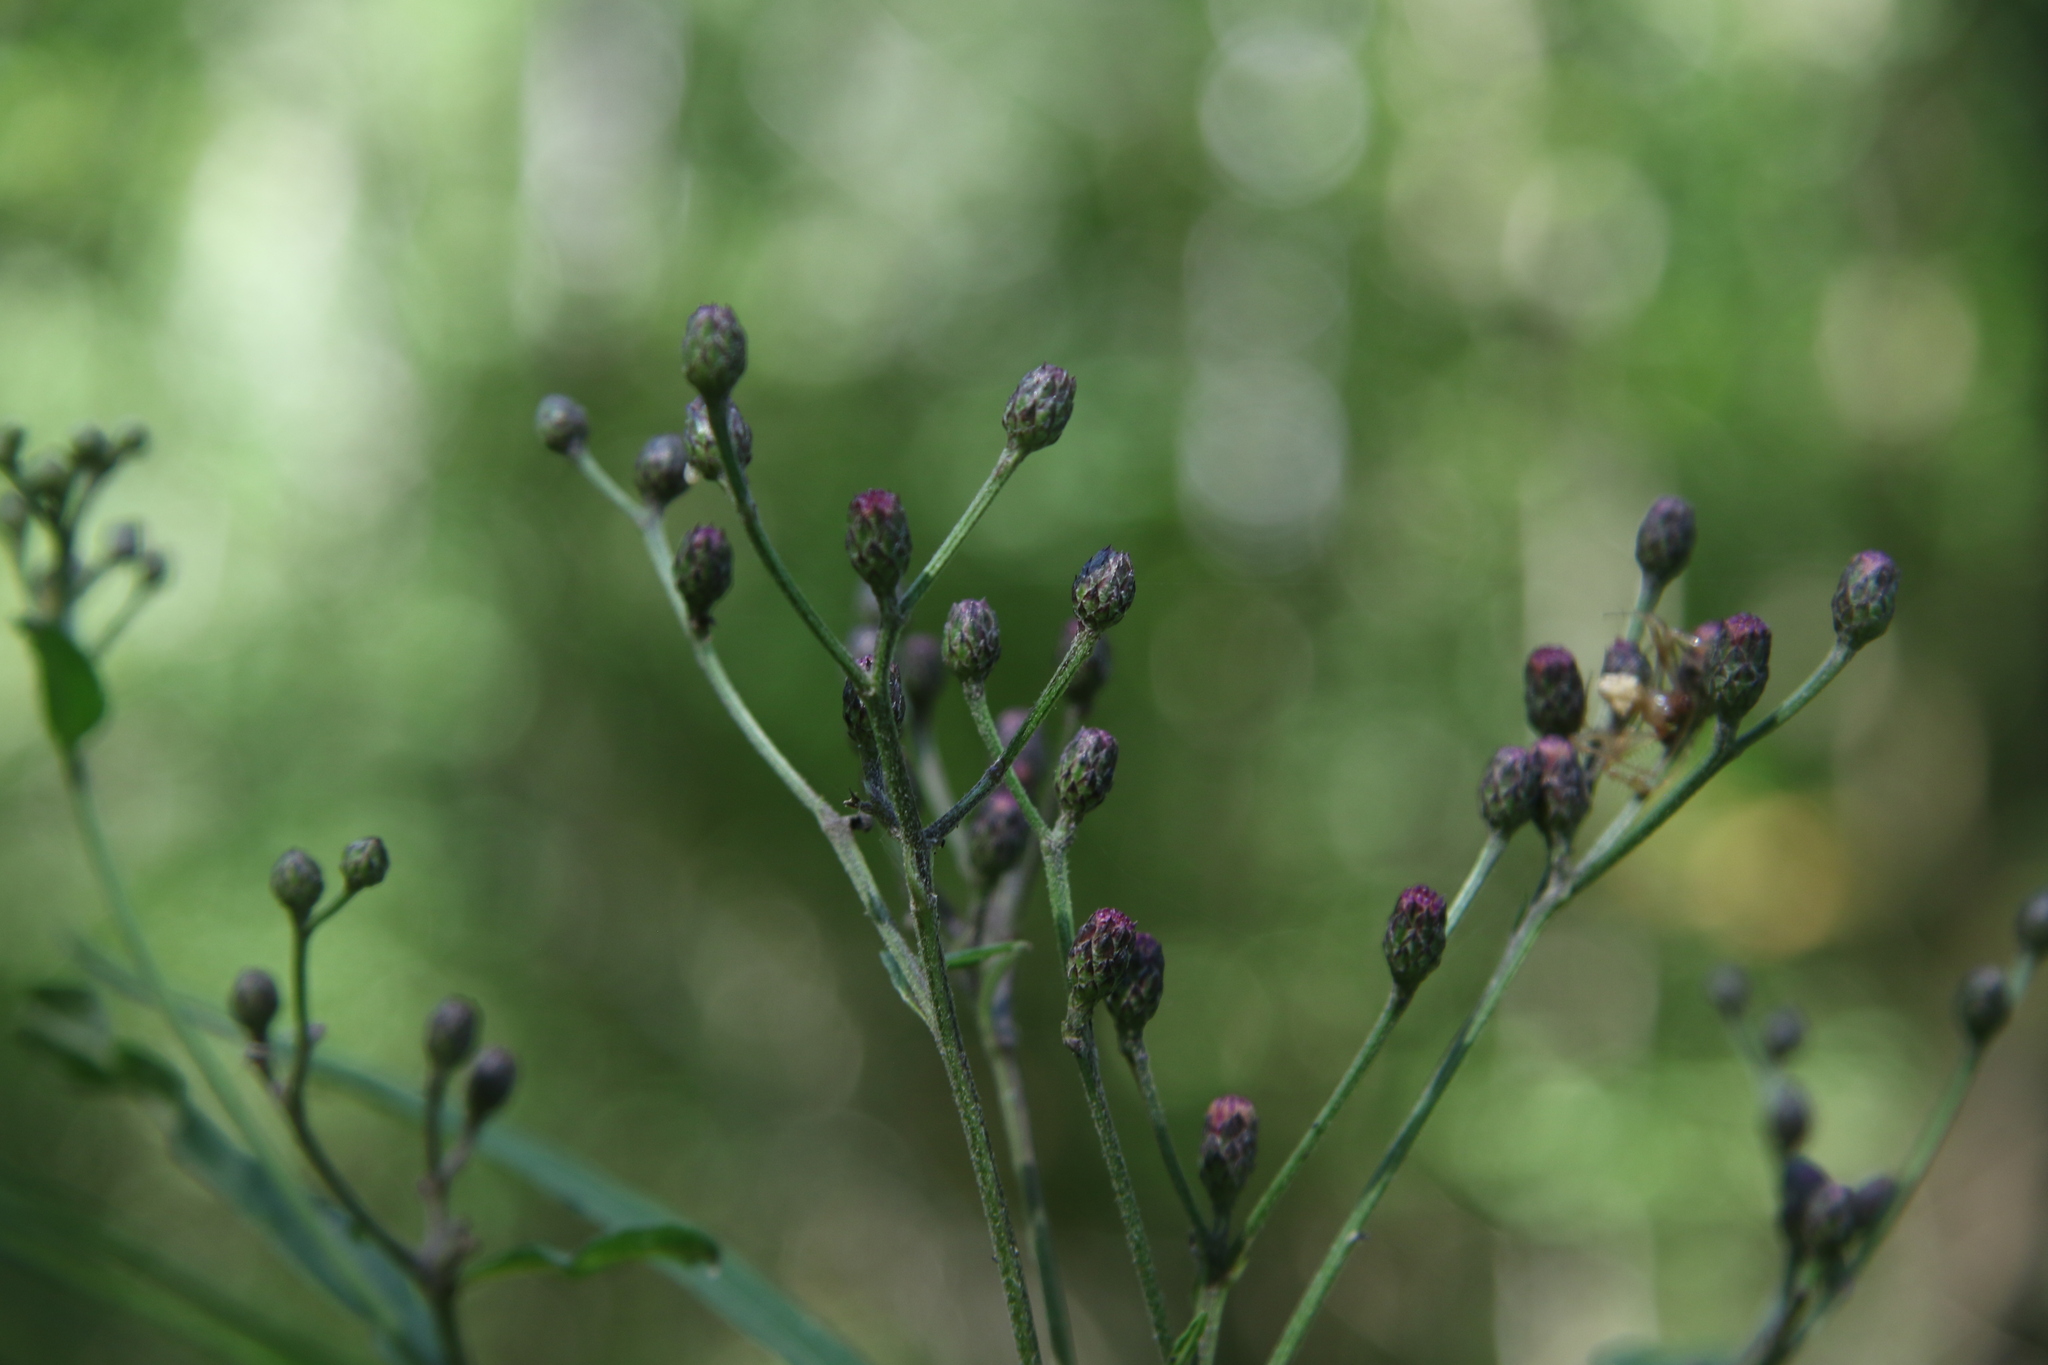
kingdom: Plantae
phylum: Tracheophyta
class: Magnoliopsida
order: Asterales
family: Asteraceae
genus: Vernonia
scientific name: Vernonia gigantea
